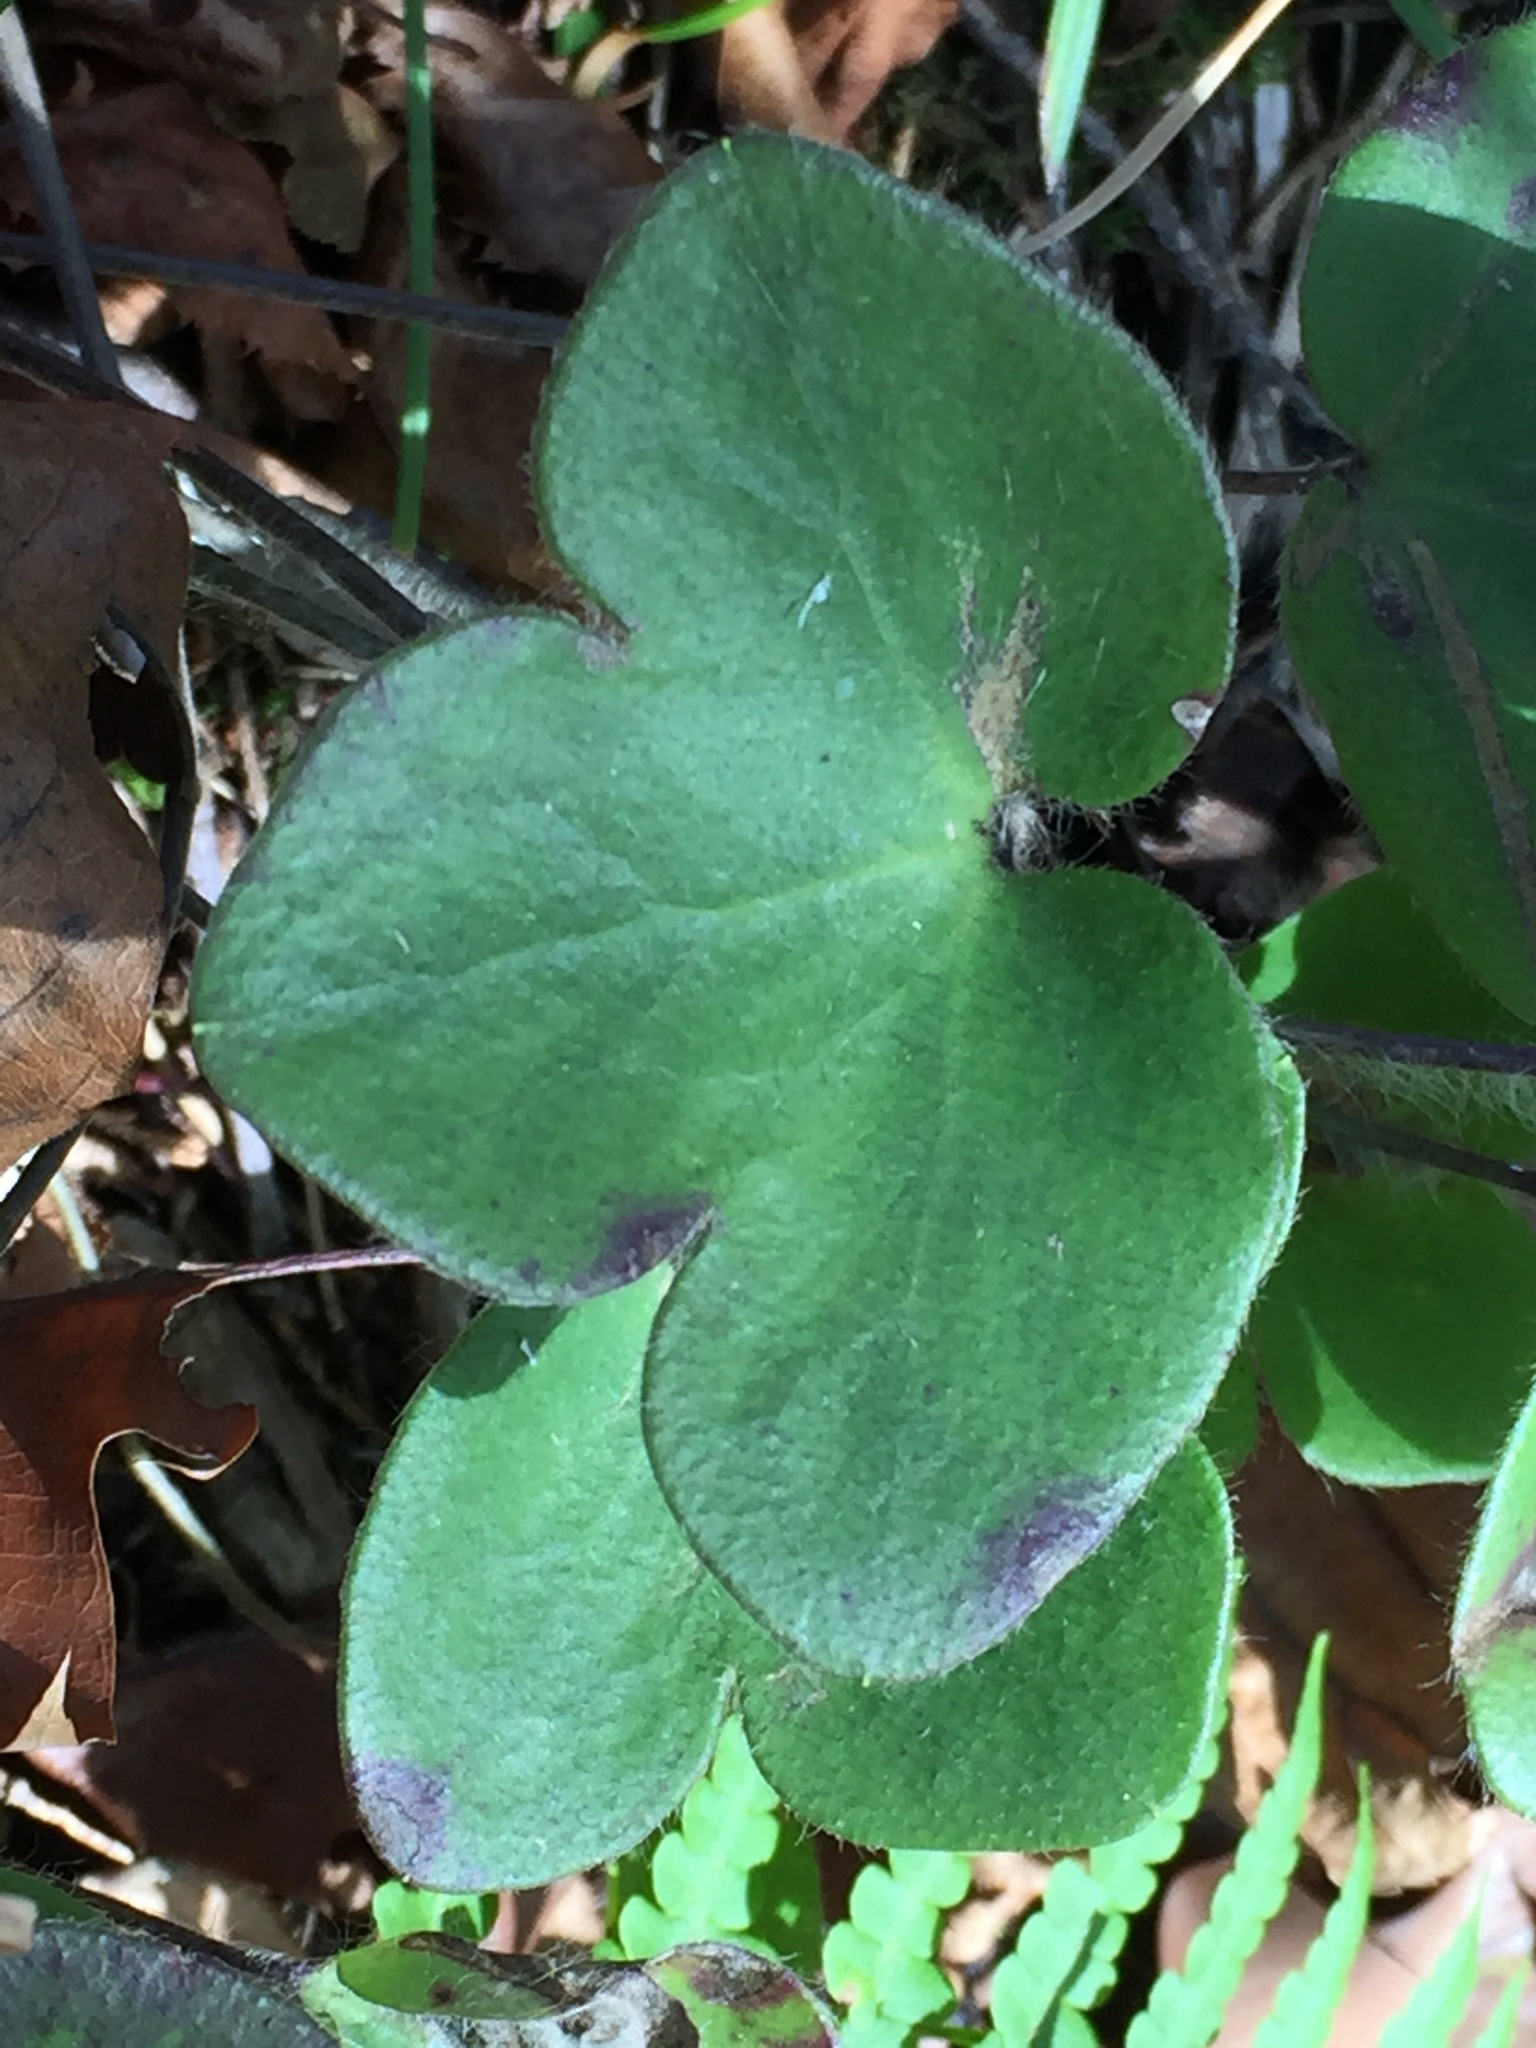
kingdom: Plantae
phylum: Tracheophyta
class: Magnoliopsida
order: Ranunculales
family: Ranunculaceae
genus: Hepatica
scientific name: Hepatica americana
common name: American hepatica
